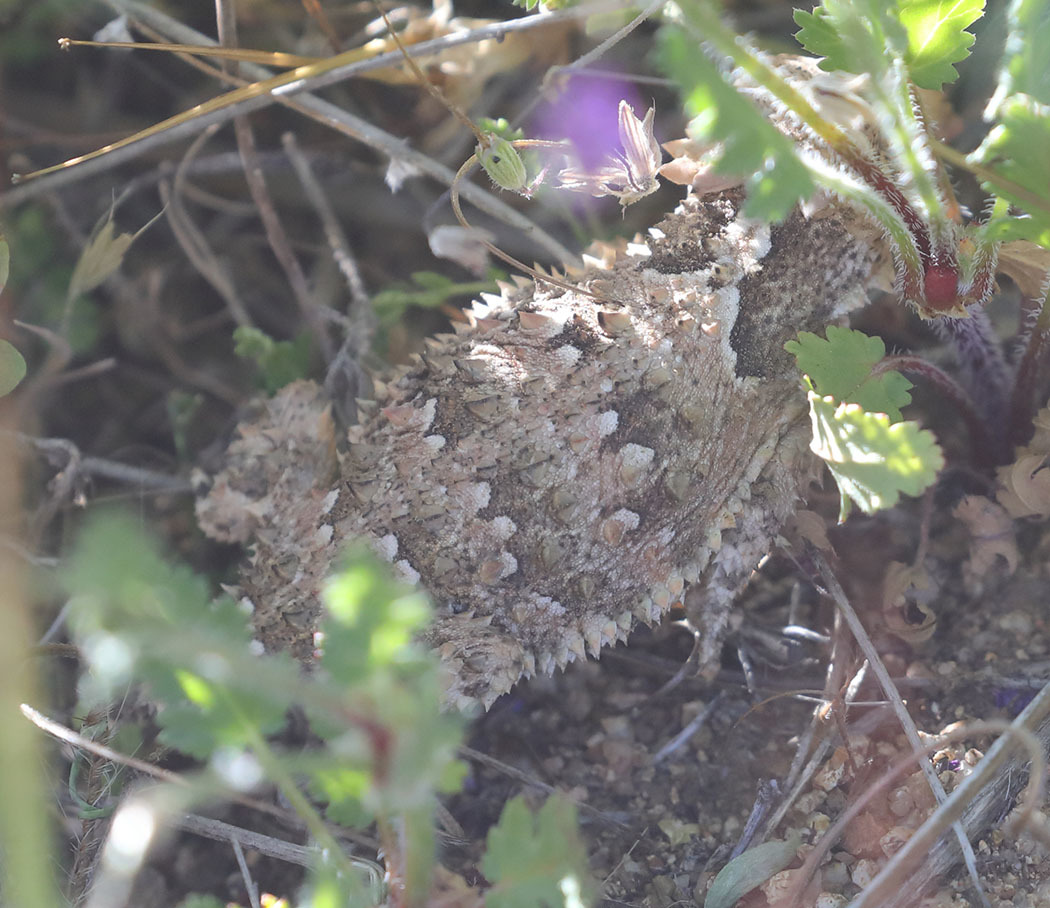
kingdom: Animalia
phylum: Chordata
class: Squamata
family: Phrynosomatidae
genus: Phrynosoma
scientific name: Phrynosoma blainvillii
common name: San diego horned lizard
